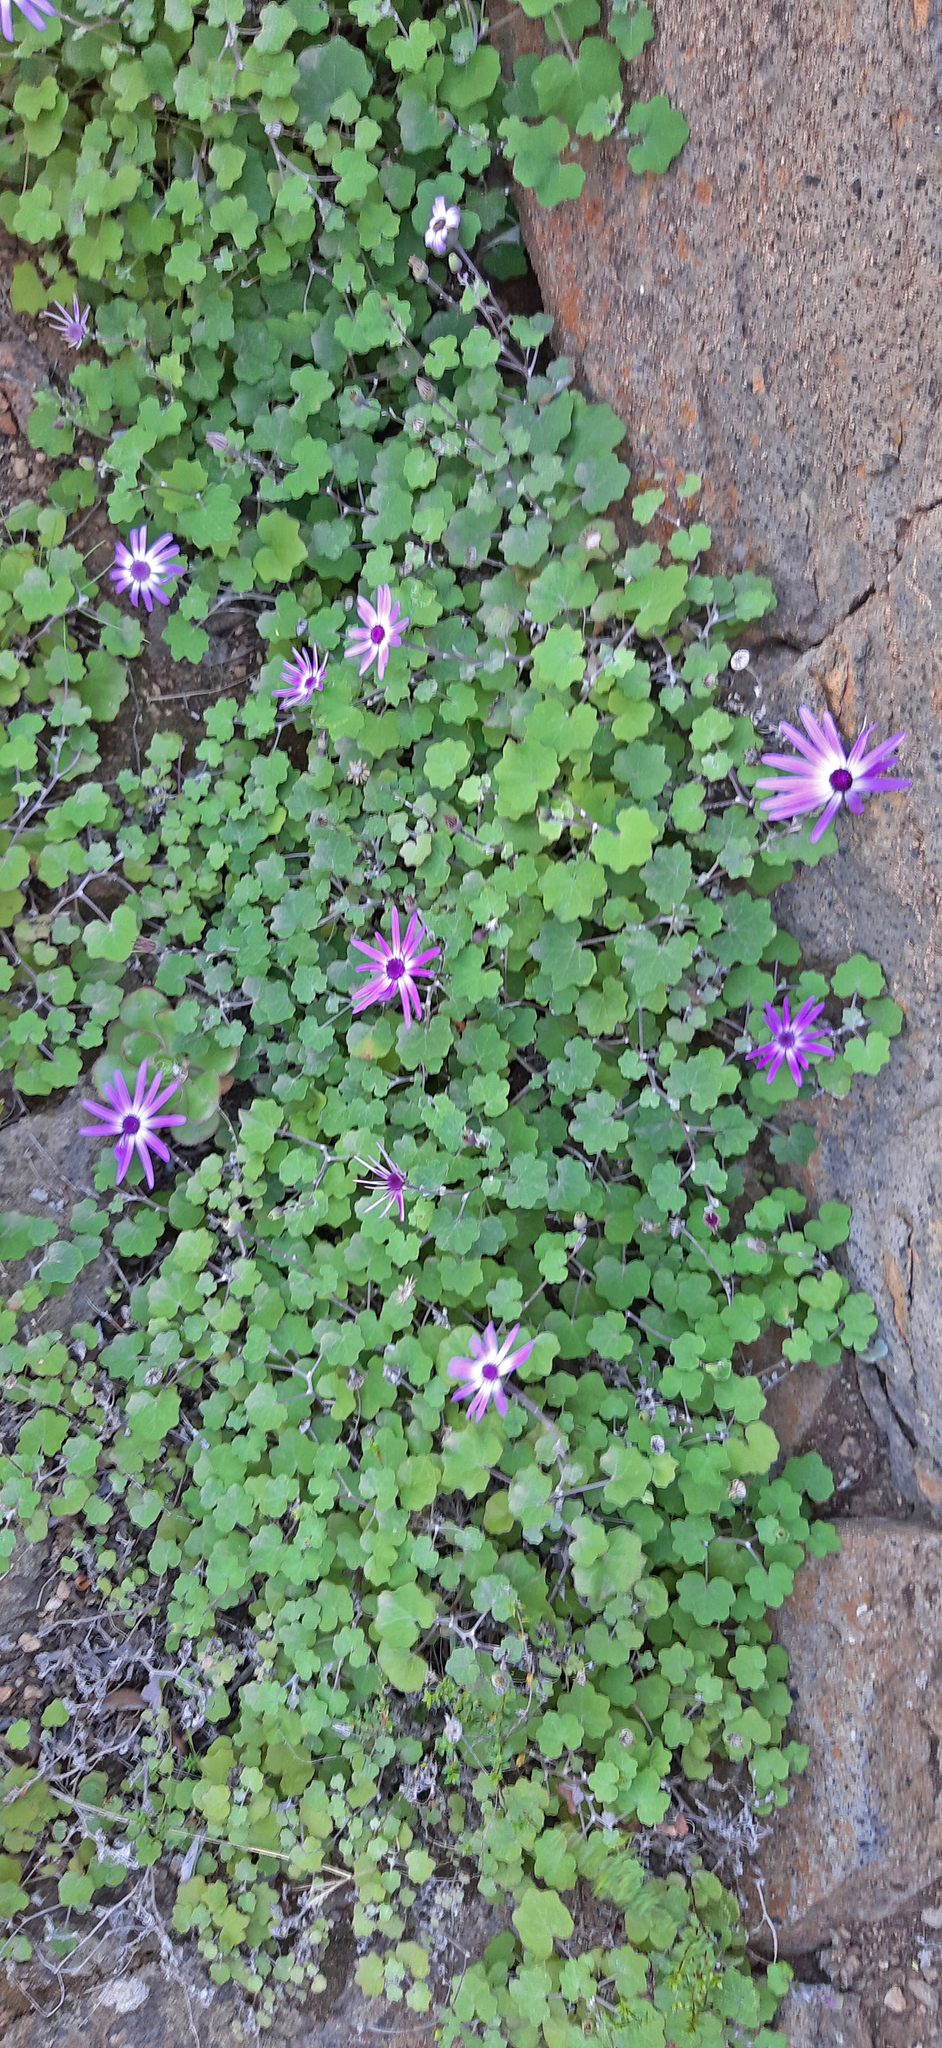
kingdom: Plantae
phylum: Tracheophyta
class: Magnoliopsida
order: Asterales
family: Asteraceae
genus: Pericallis
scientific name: Pericallis lanata
